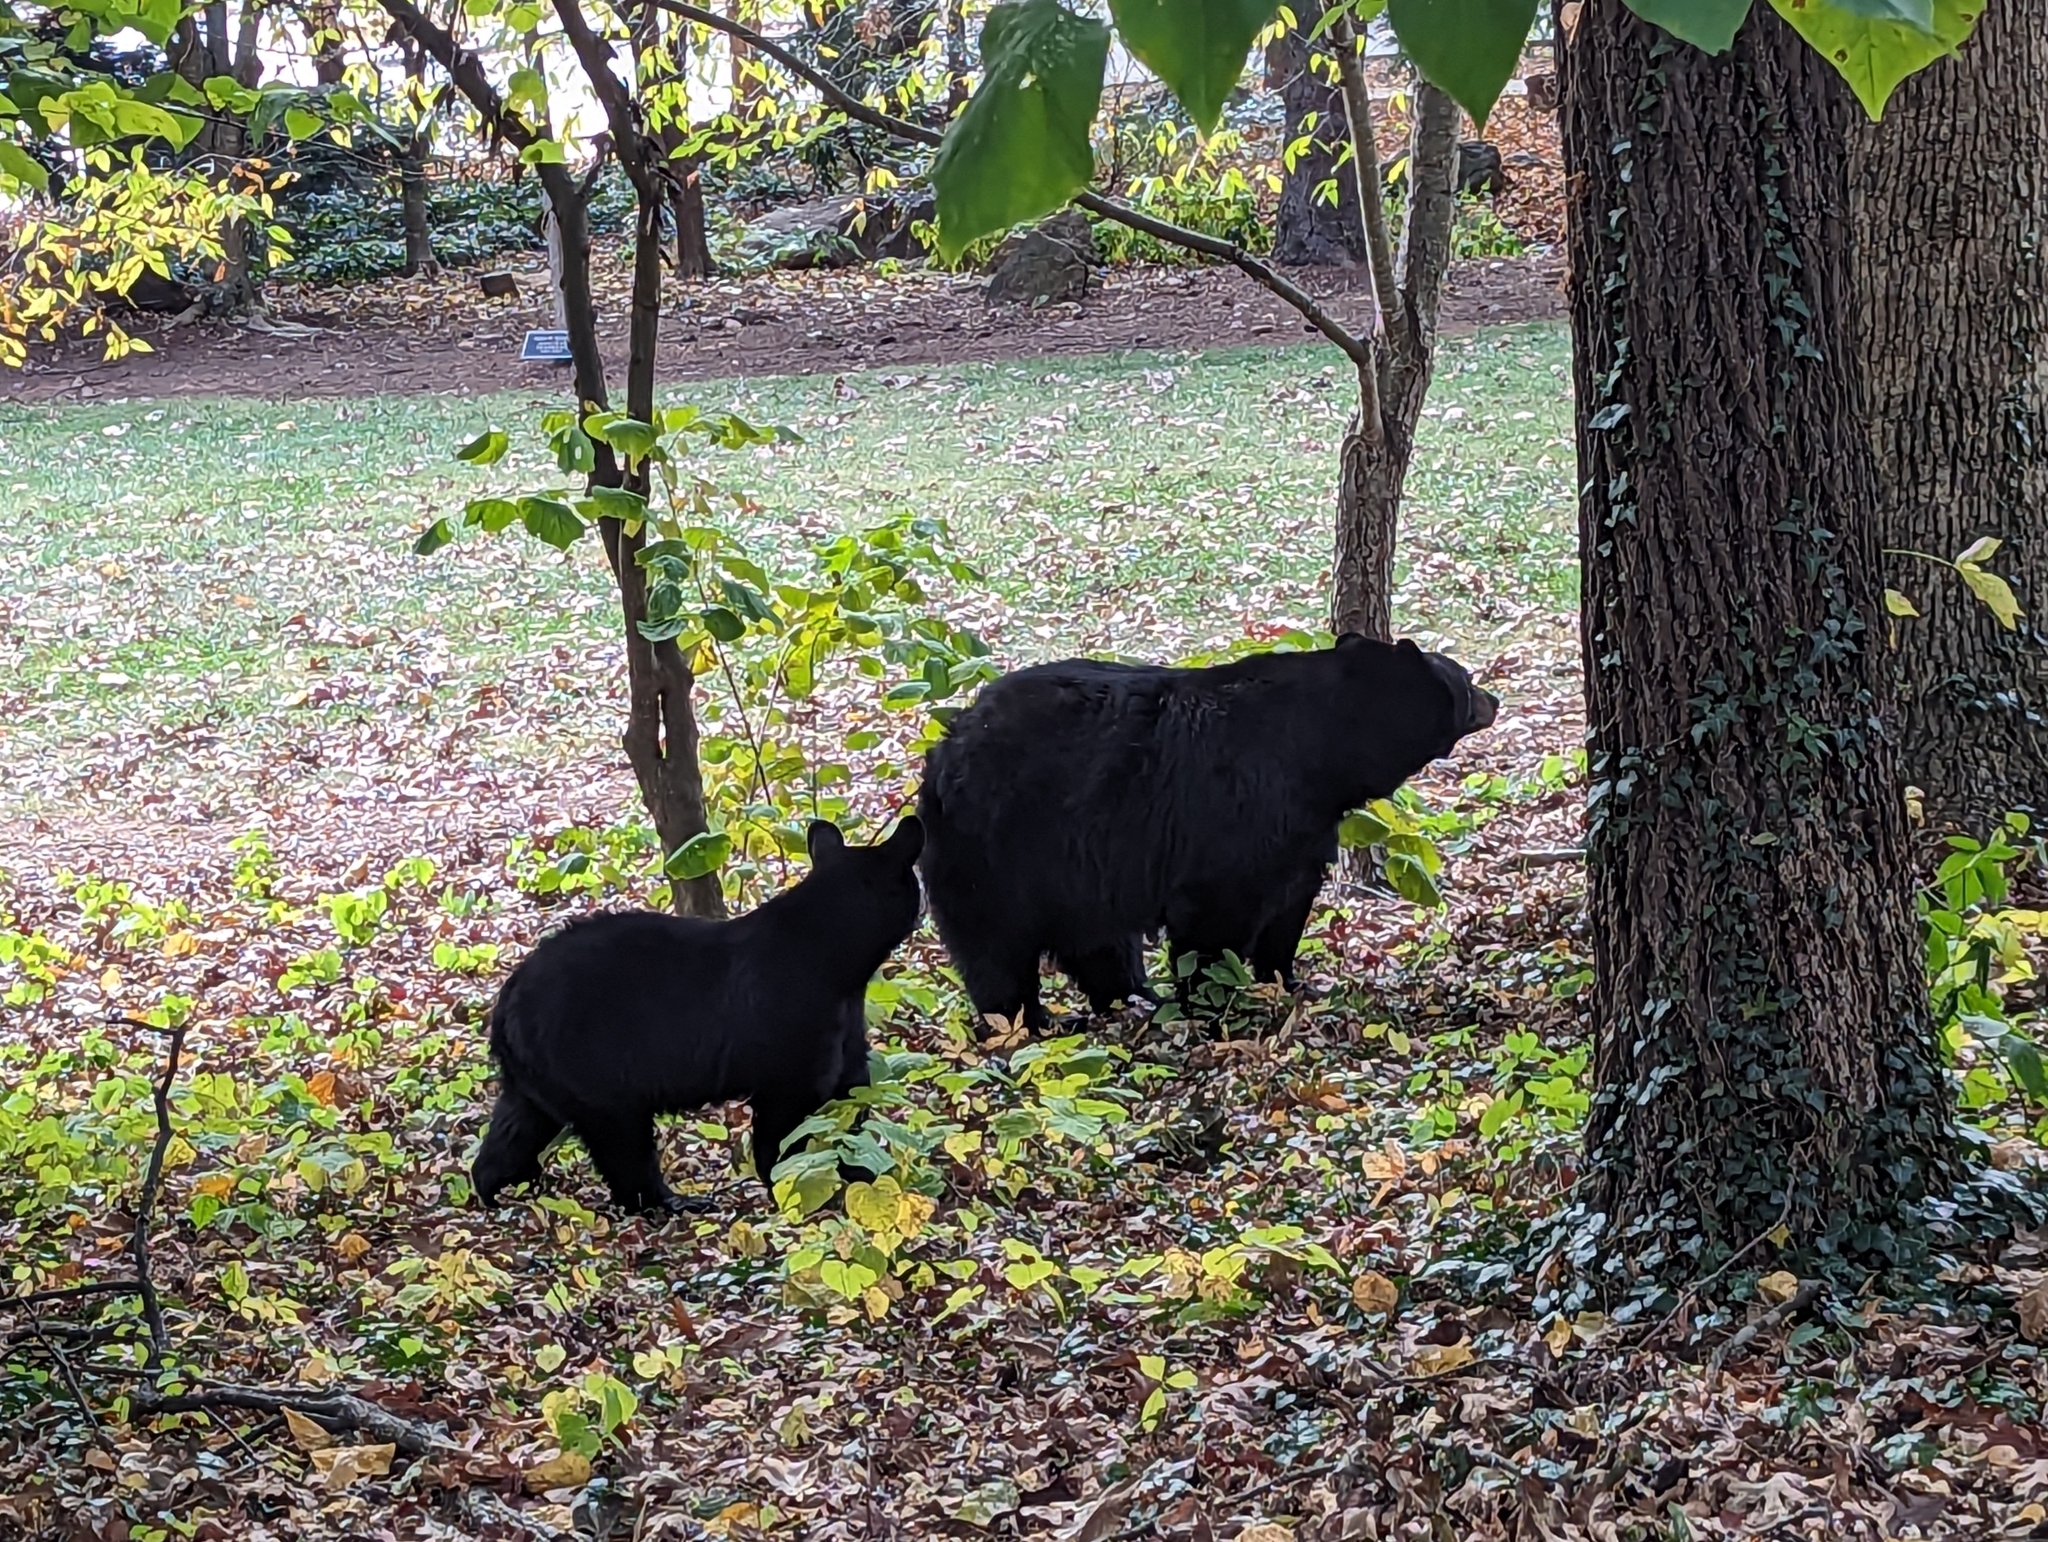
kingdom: Animalia
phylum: Chordata
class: Mammalia
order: Carnivora
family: Ursidae
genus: Ursus
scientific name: Ursus americanus
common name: American black bear
